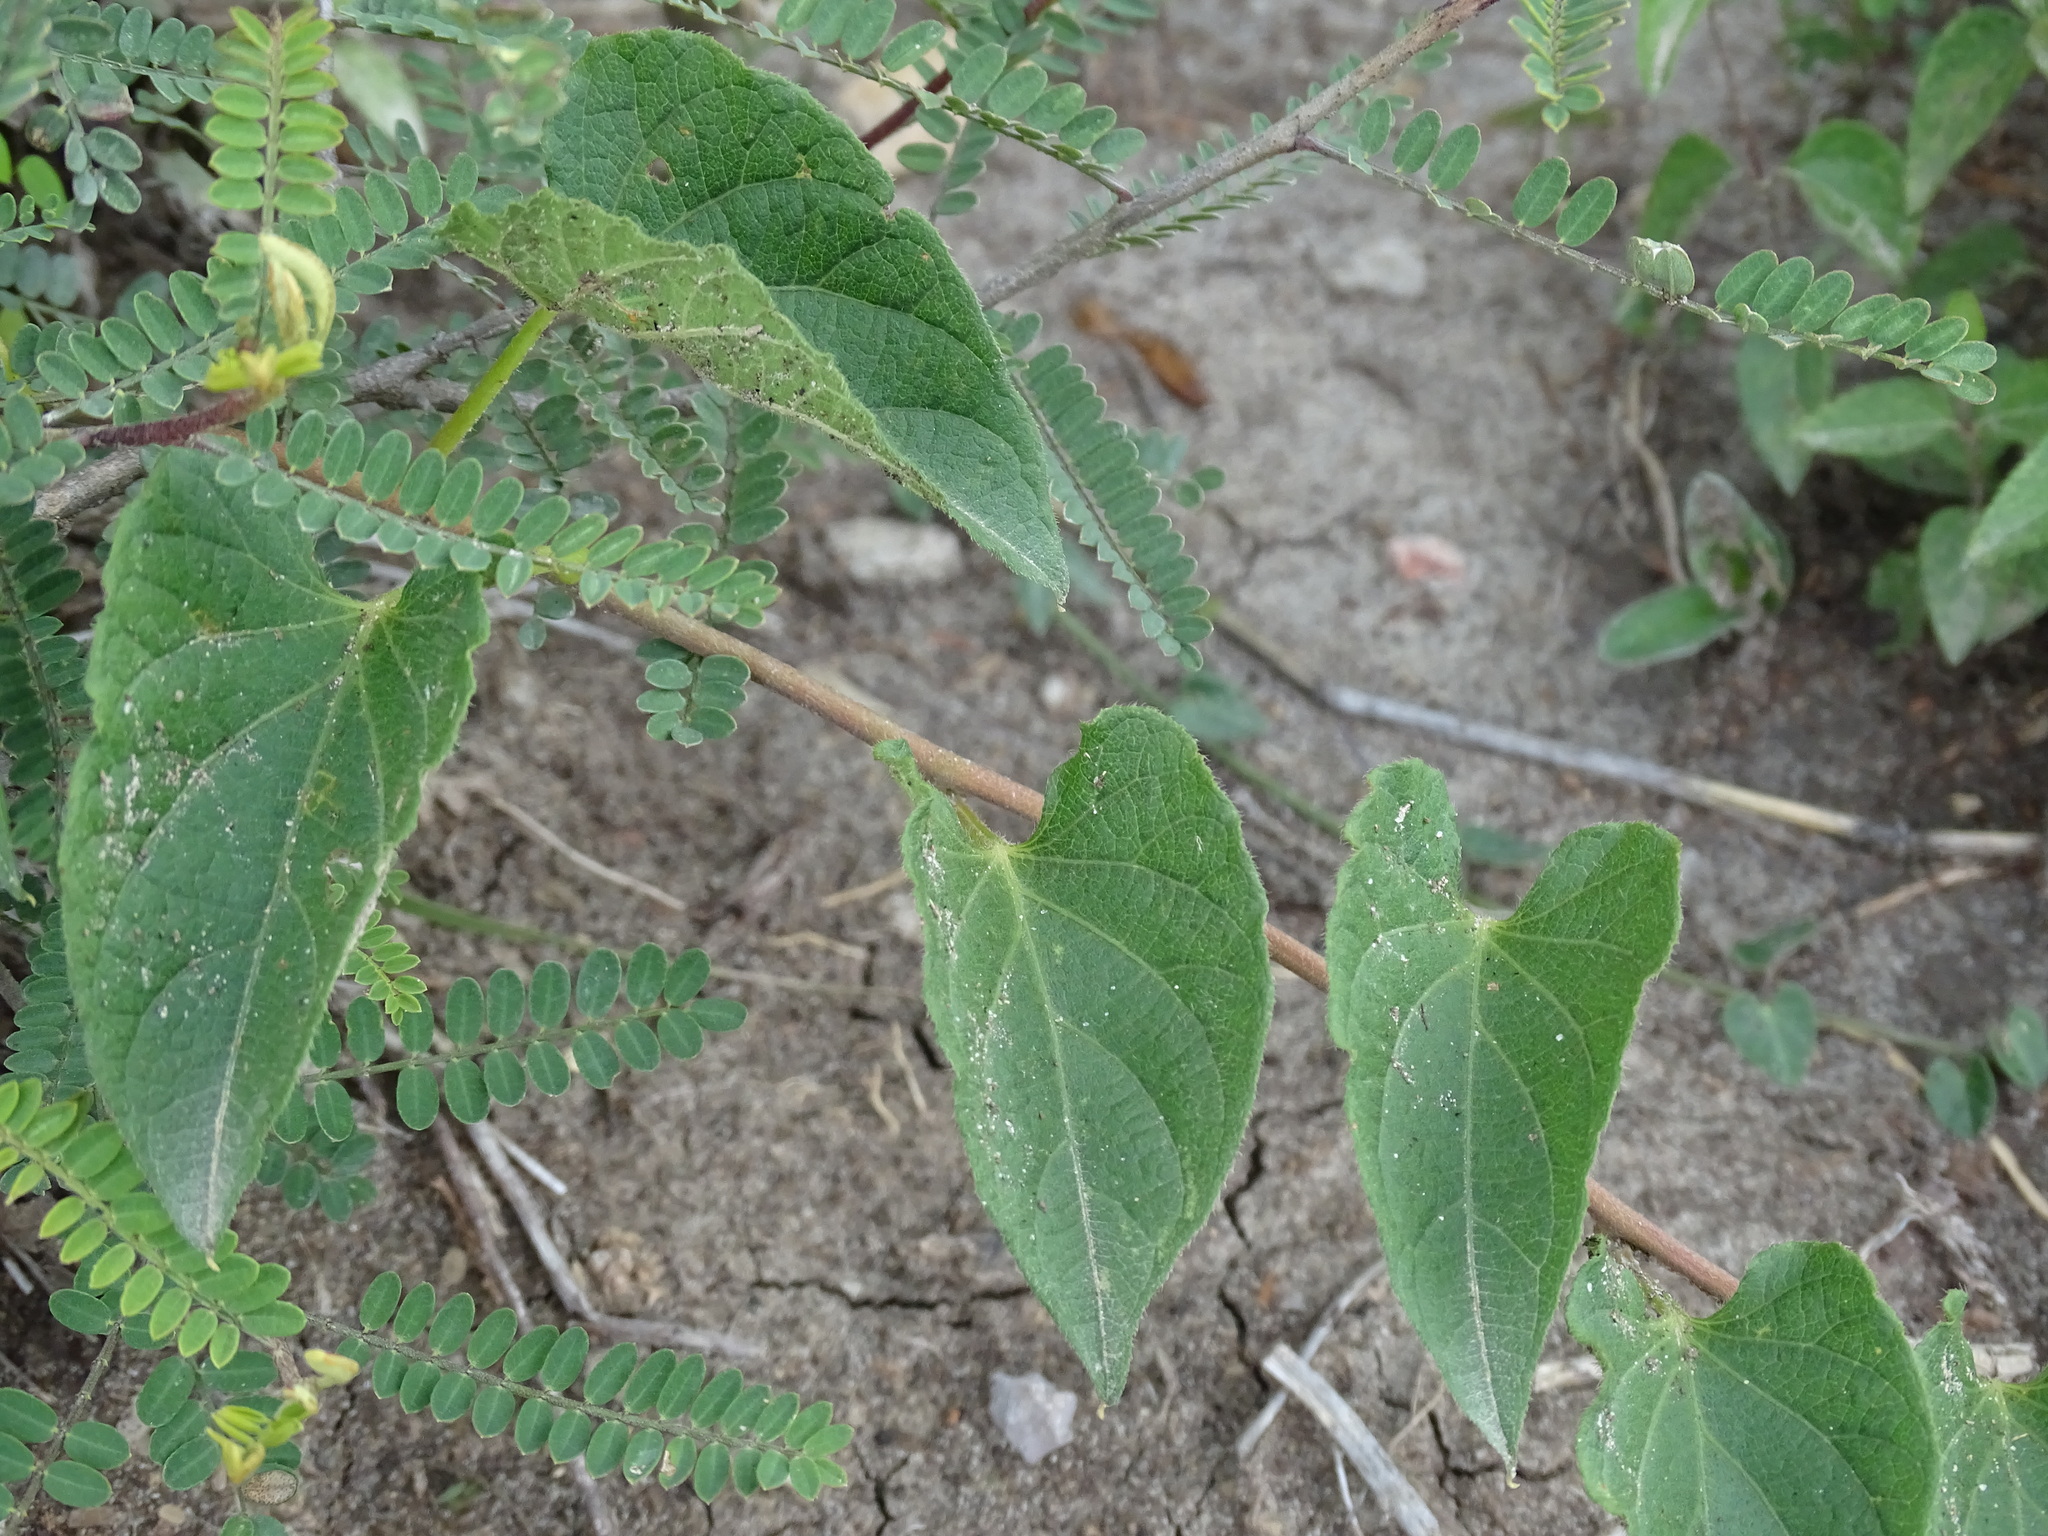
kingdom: Plantae
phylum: Tracheophyta
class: Magnoliopsida
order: Solanales
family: Convolvulaceae
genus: Ipomoea
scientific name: Ipomoea proxima
